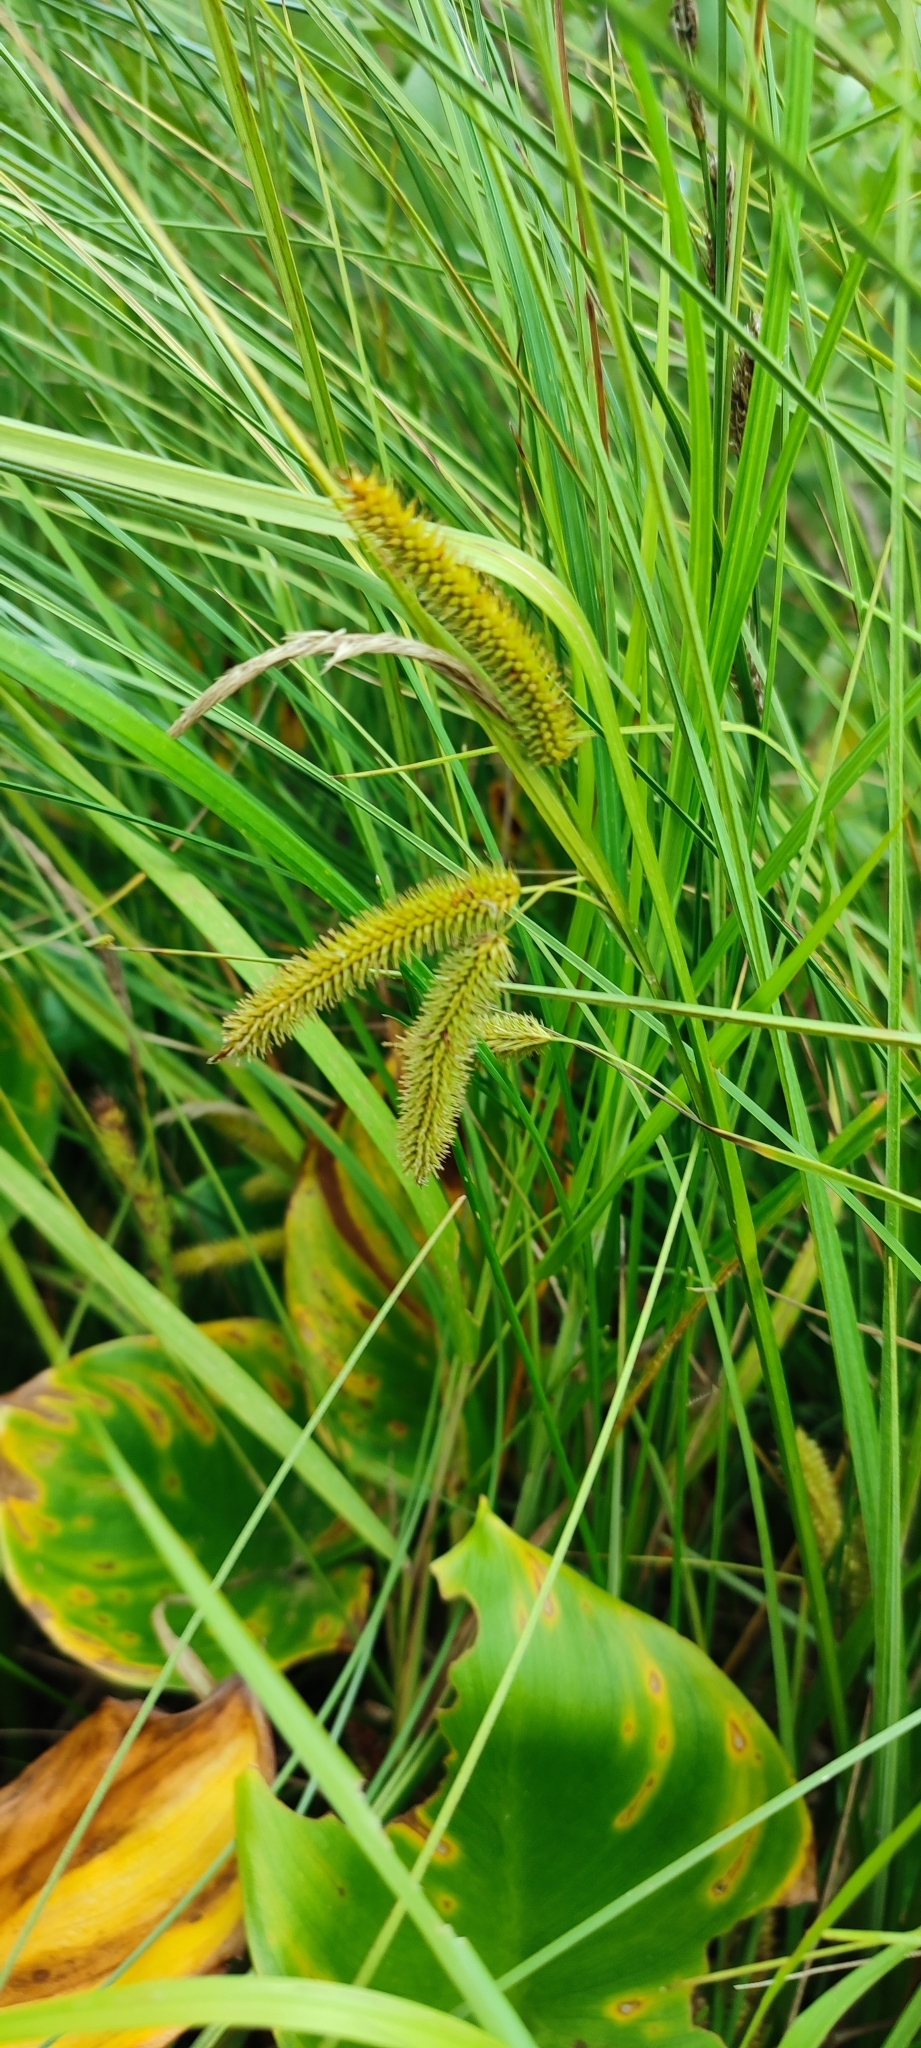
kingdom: Plantae
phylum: Tracheophyta
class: Liliopsida
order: Poales
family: Cyperaceae
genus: Carex
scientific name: Carex pseudocyperus
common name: Cyperus sedge
